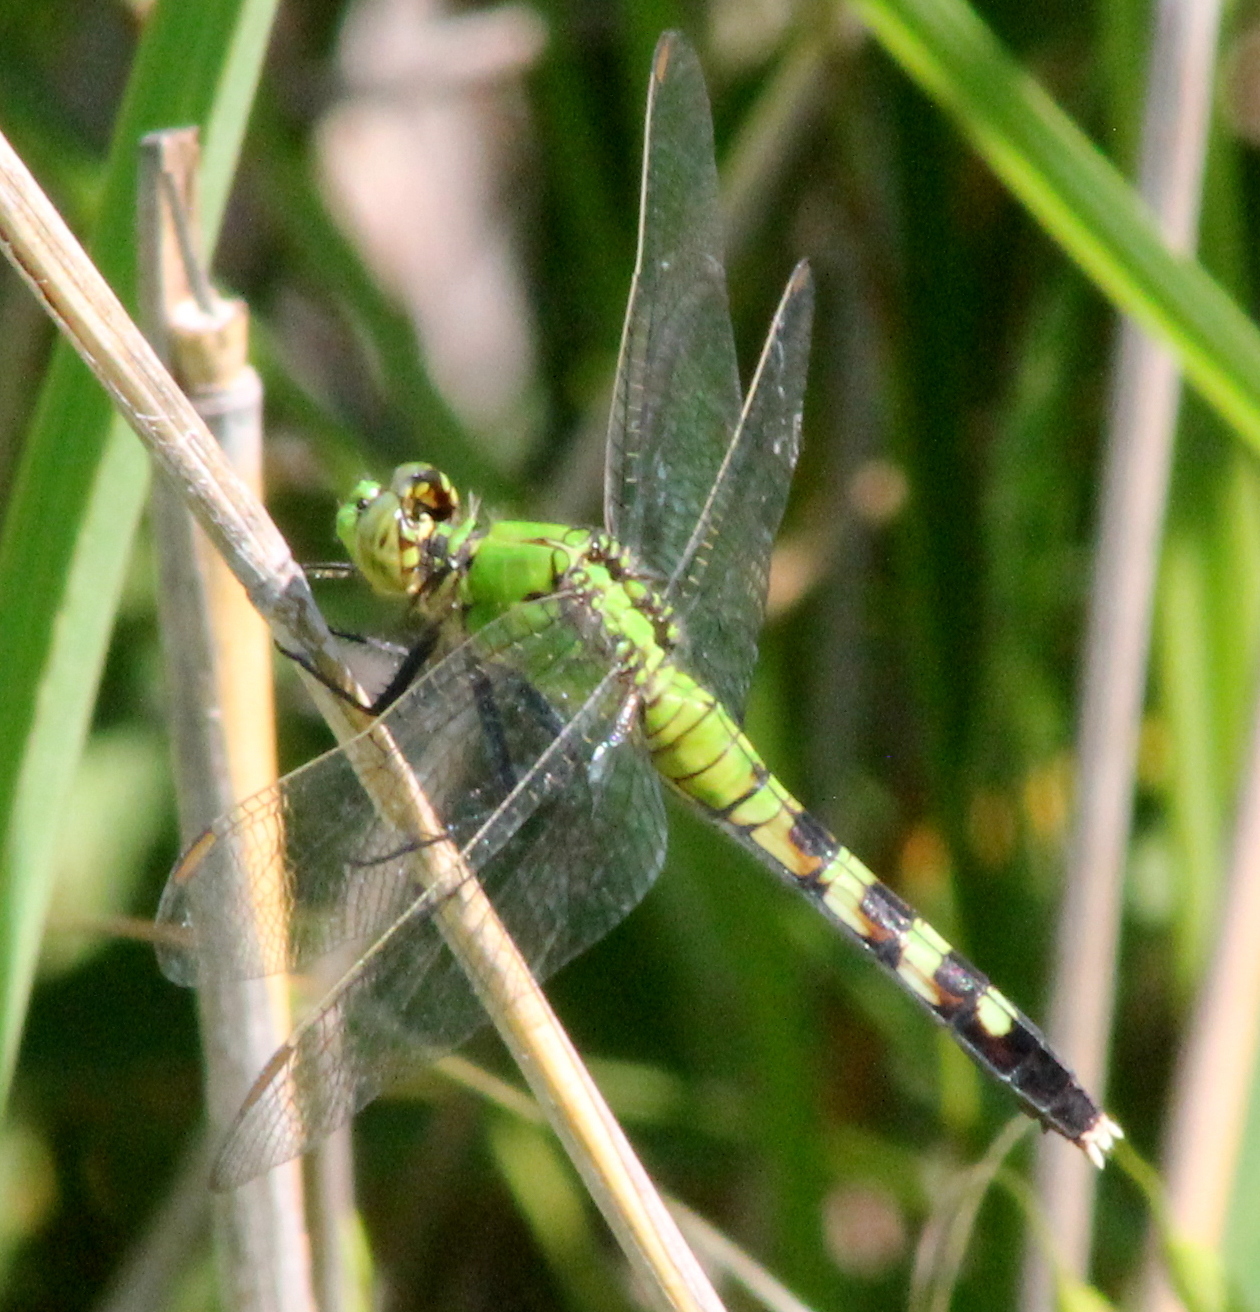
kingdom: Animalia
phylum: Arthropoda
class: Insecta
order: Odonata
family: Libellulidae
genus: Erythemis
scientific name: Erythemis simplicicollis
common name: Eastern pondhawk
